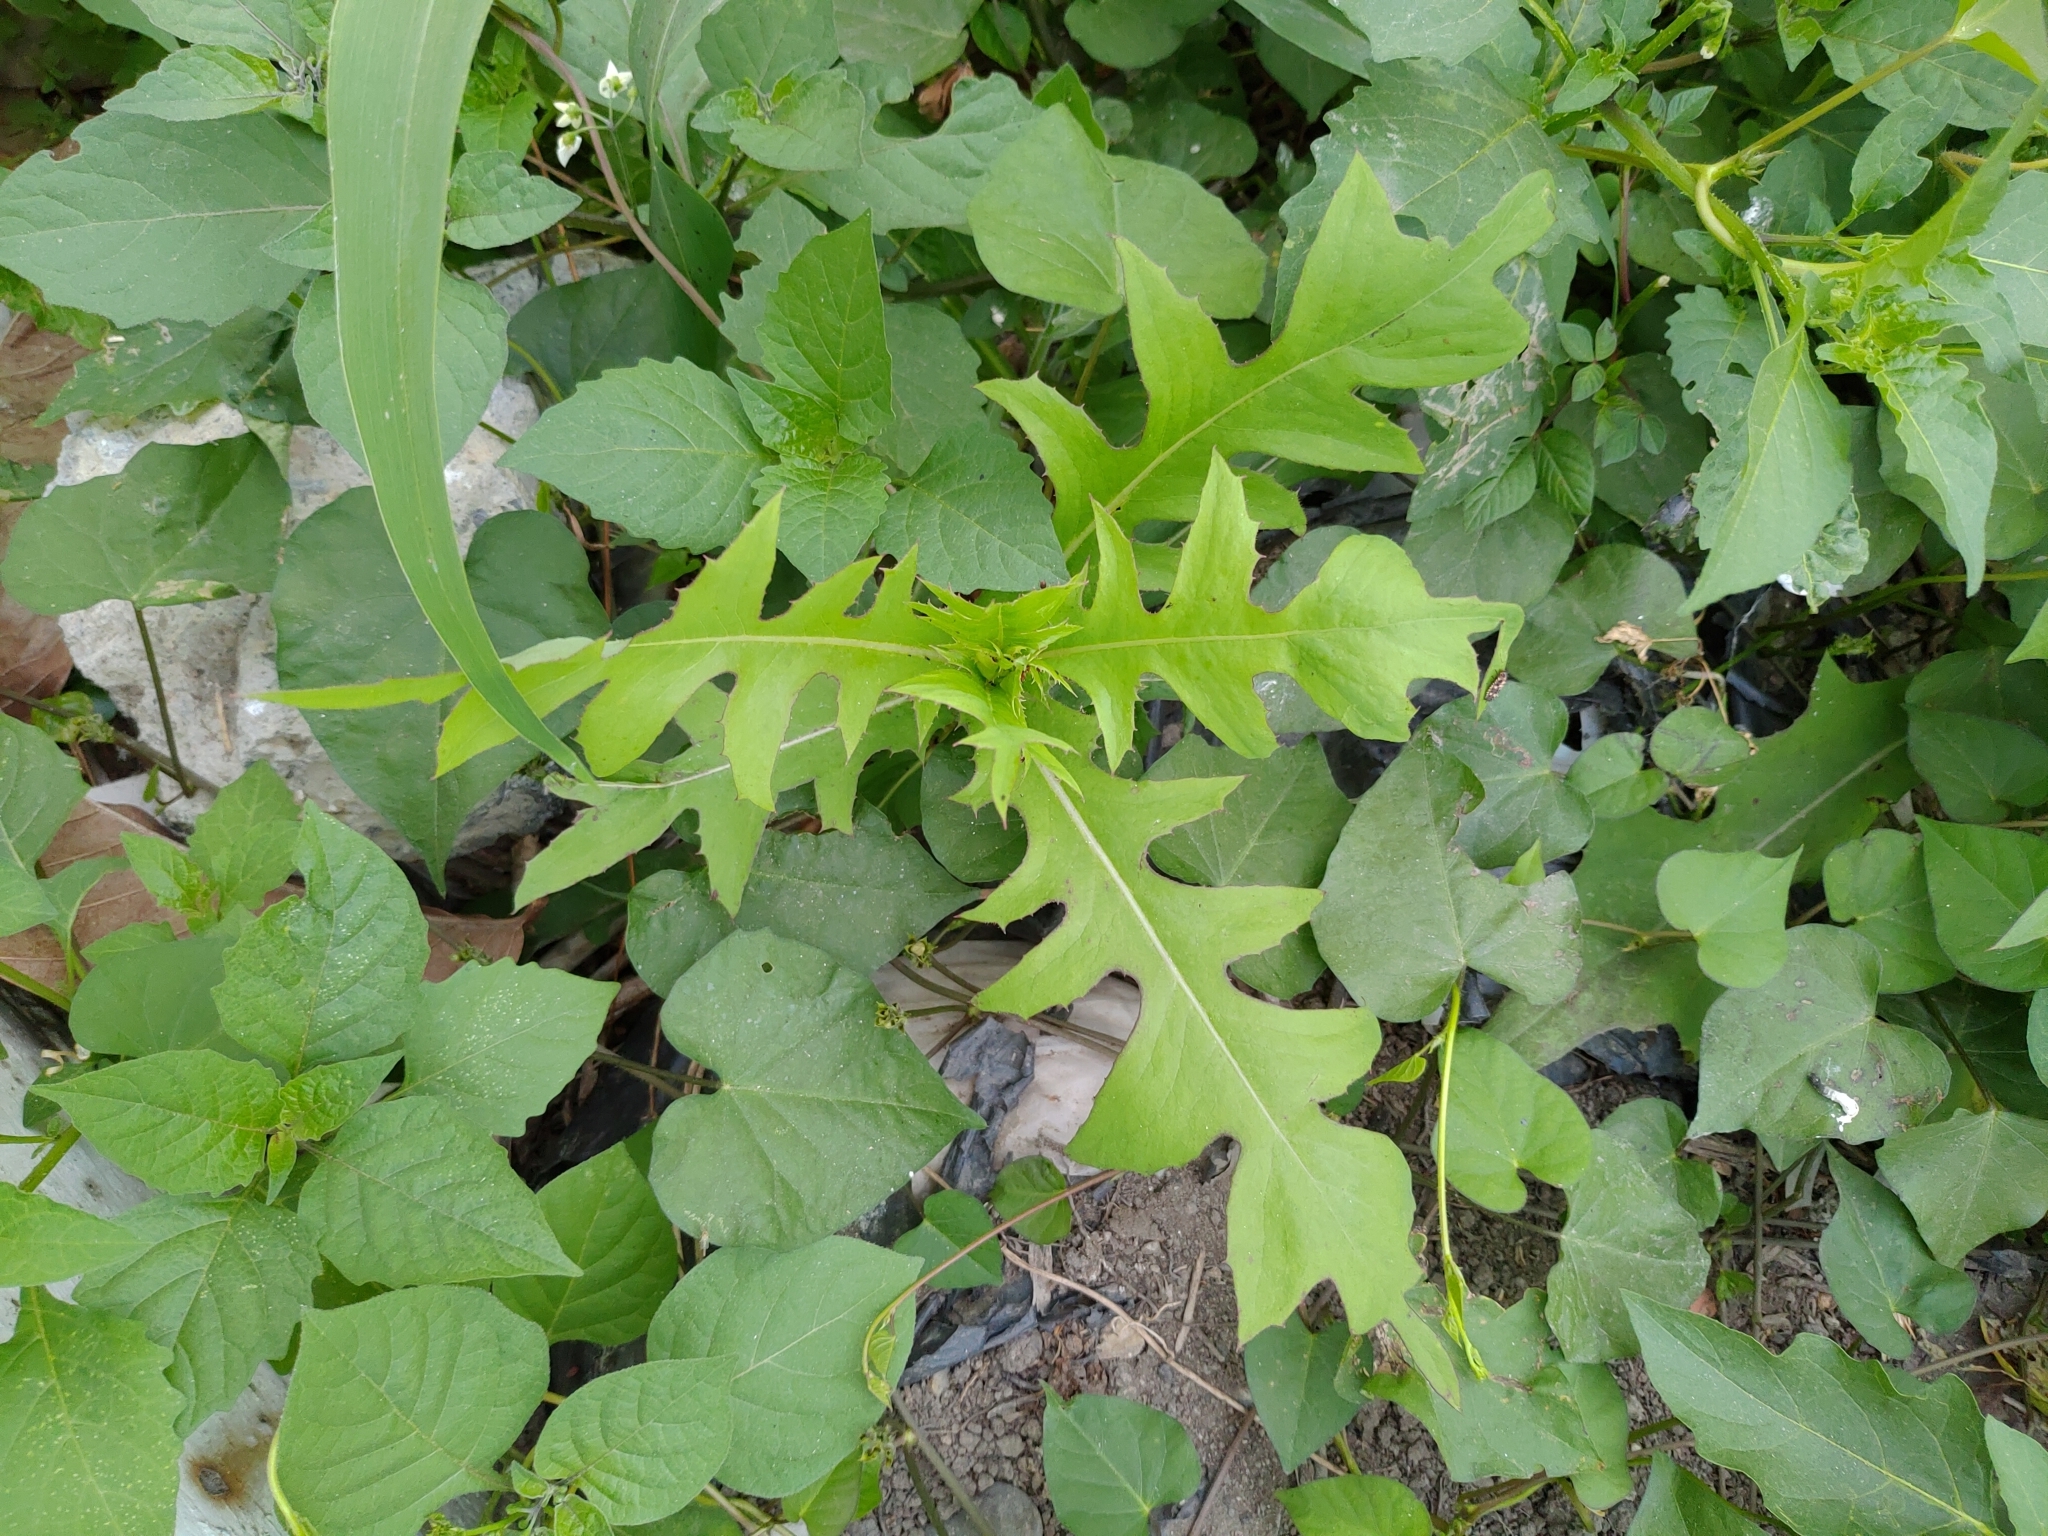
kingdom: Plantae
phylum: Tracheophyta
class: Magnoliopsida
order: Asterales
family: Asteraceae
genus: Lactuca
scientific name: Lactuca indica
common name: Wild lettuce
